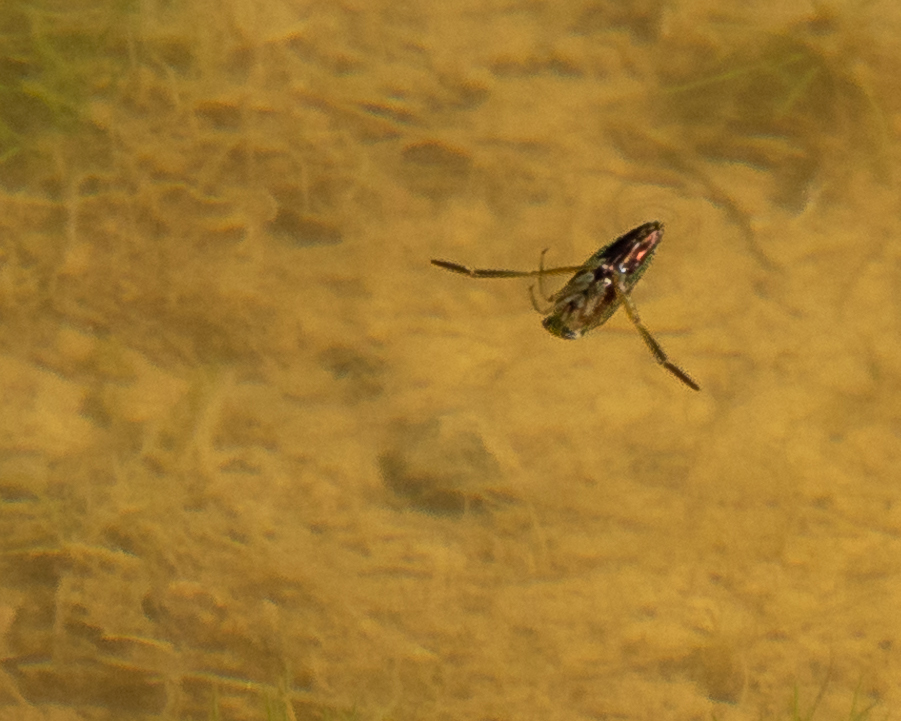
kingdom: Animalia
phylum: Arthropoda
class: Insecta
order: Hemiptera
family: Notonectidae
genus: Notonecta
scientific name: Notonecta
